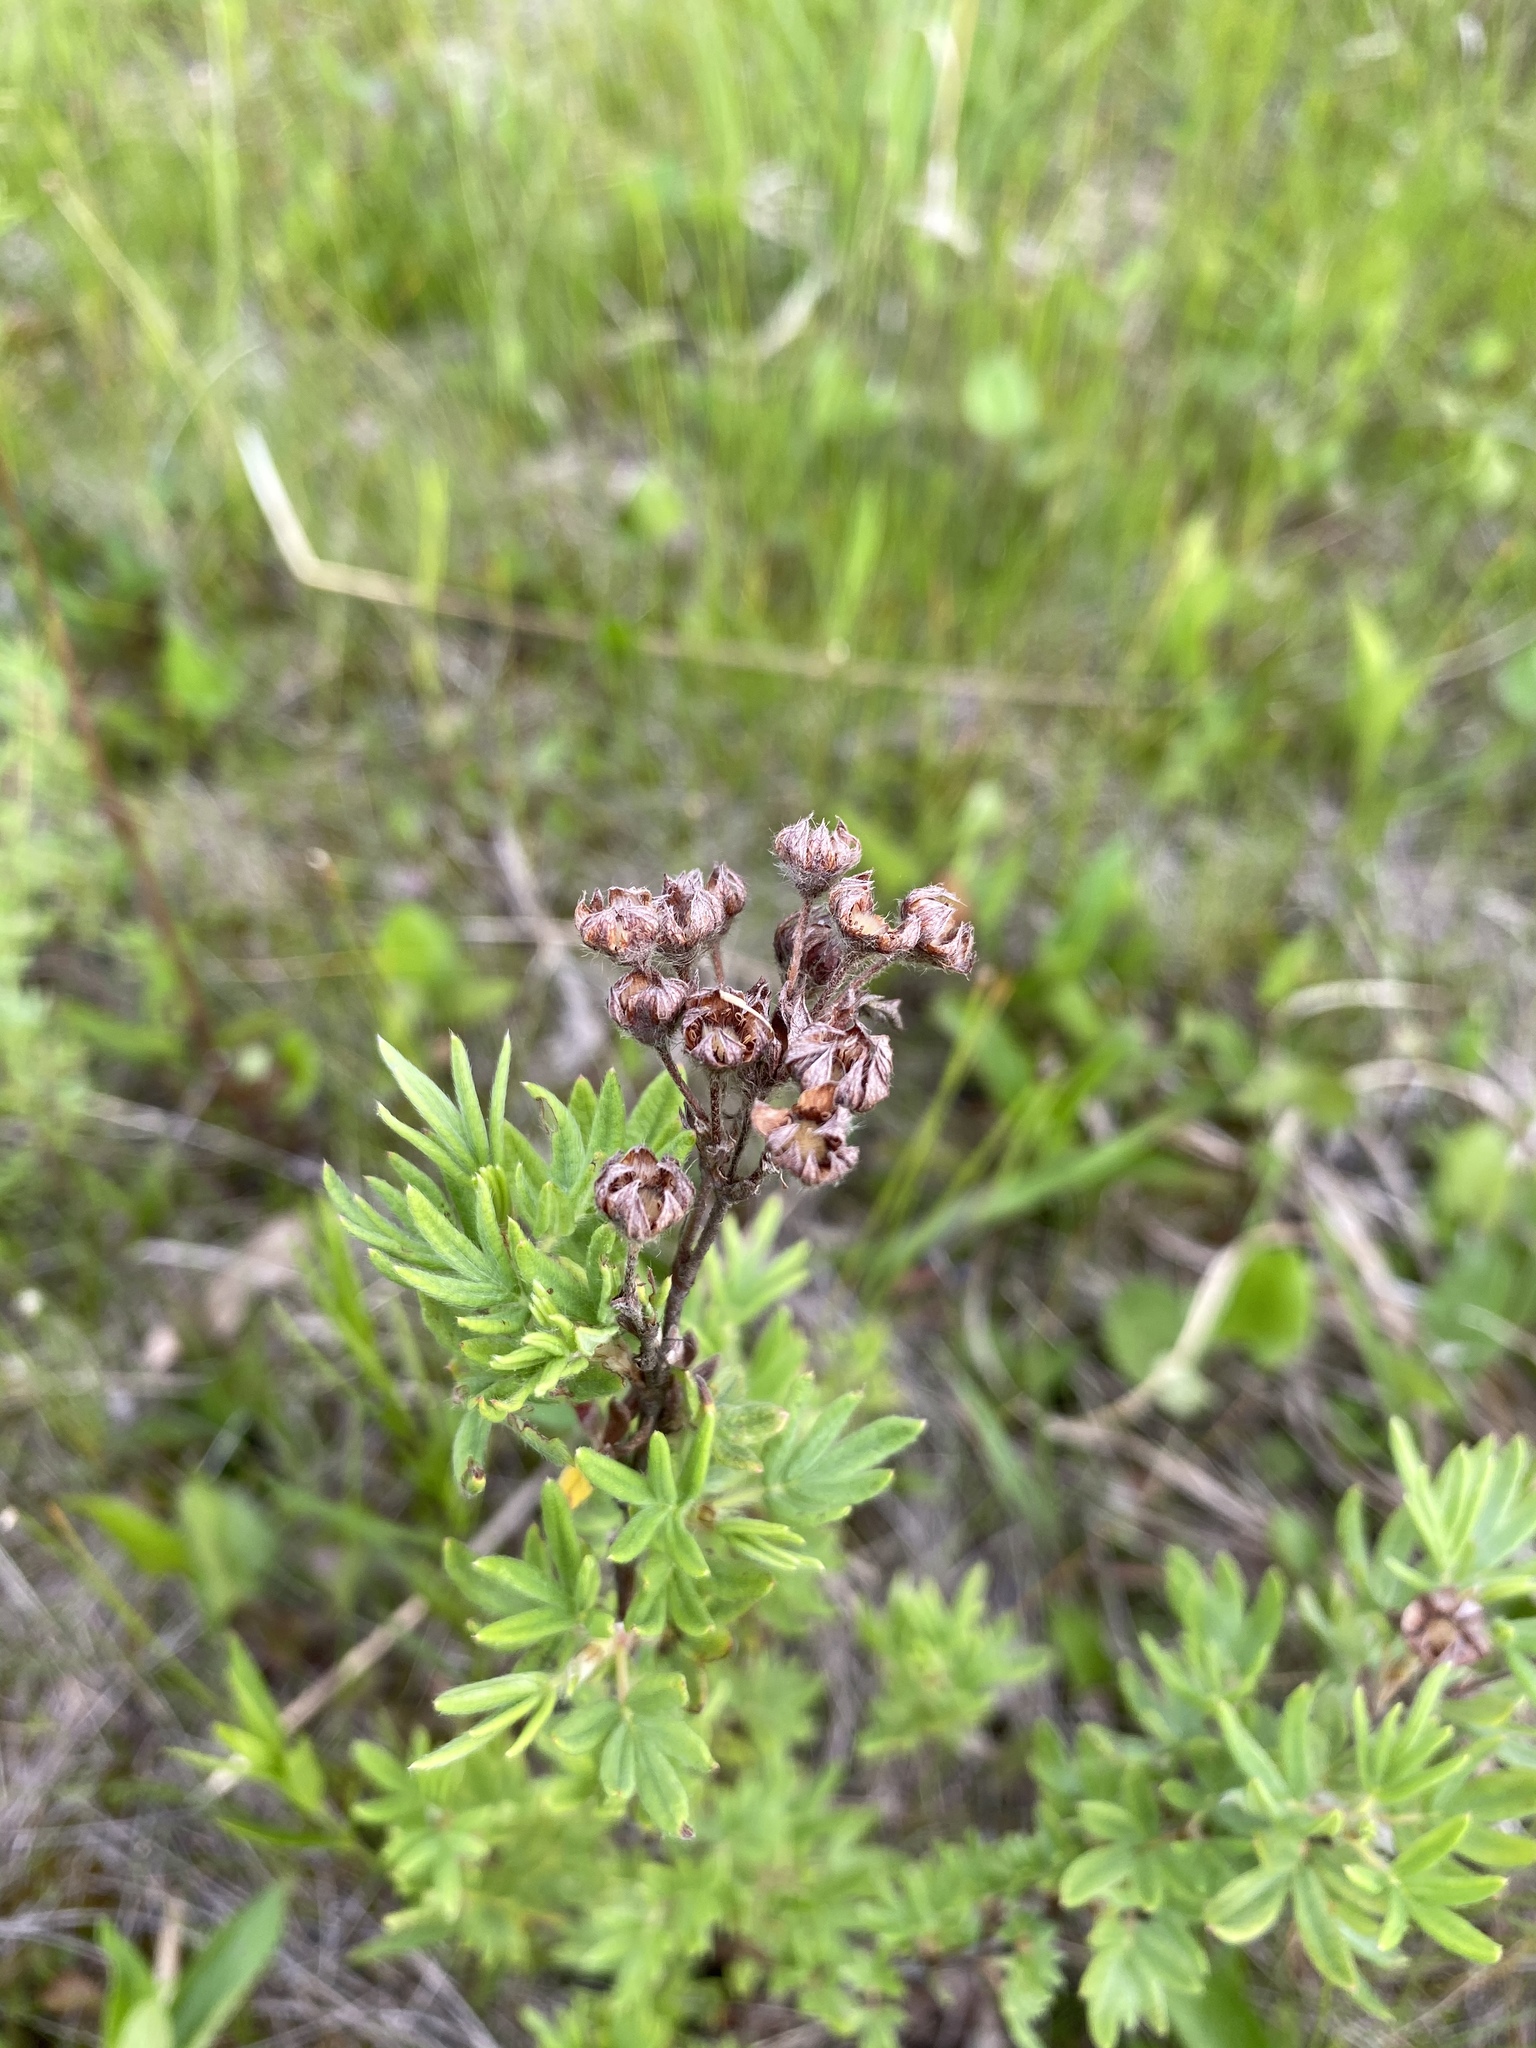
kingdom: Plantae
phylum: Tracheophyta
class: Magnoliopsida
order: Rosales
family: Rosaceae
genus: Dasiphora
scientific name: Dasiphora fruticosa
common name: Shrubby cinquefoil
